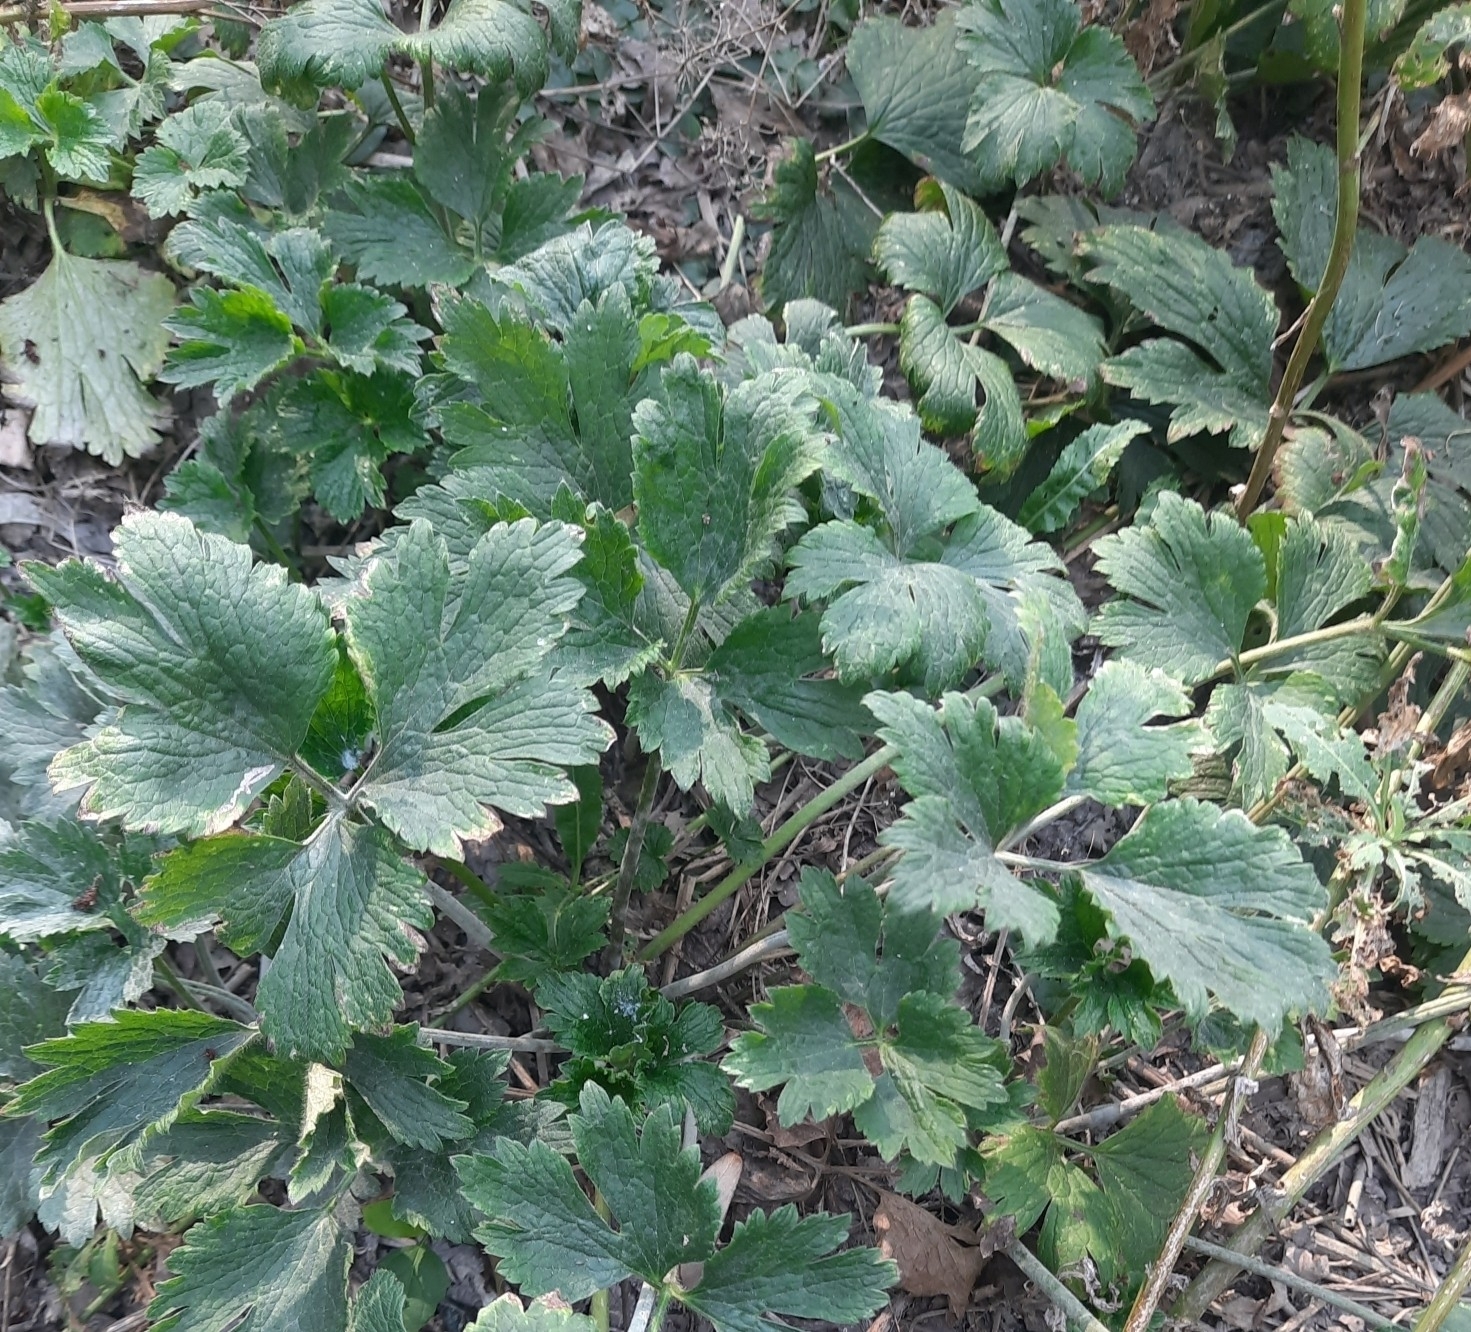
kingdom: Plantae
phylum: Tracheophyta
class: Magnoliopsida
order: Ranunculales
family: Ranunculaceae
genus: Ranunculus
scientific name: Ranunculus repens
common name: Creeping buttercup
